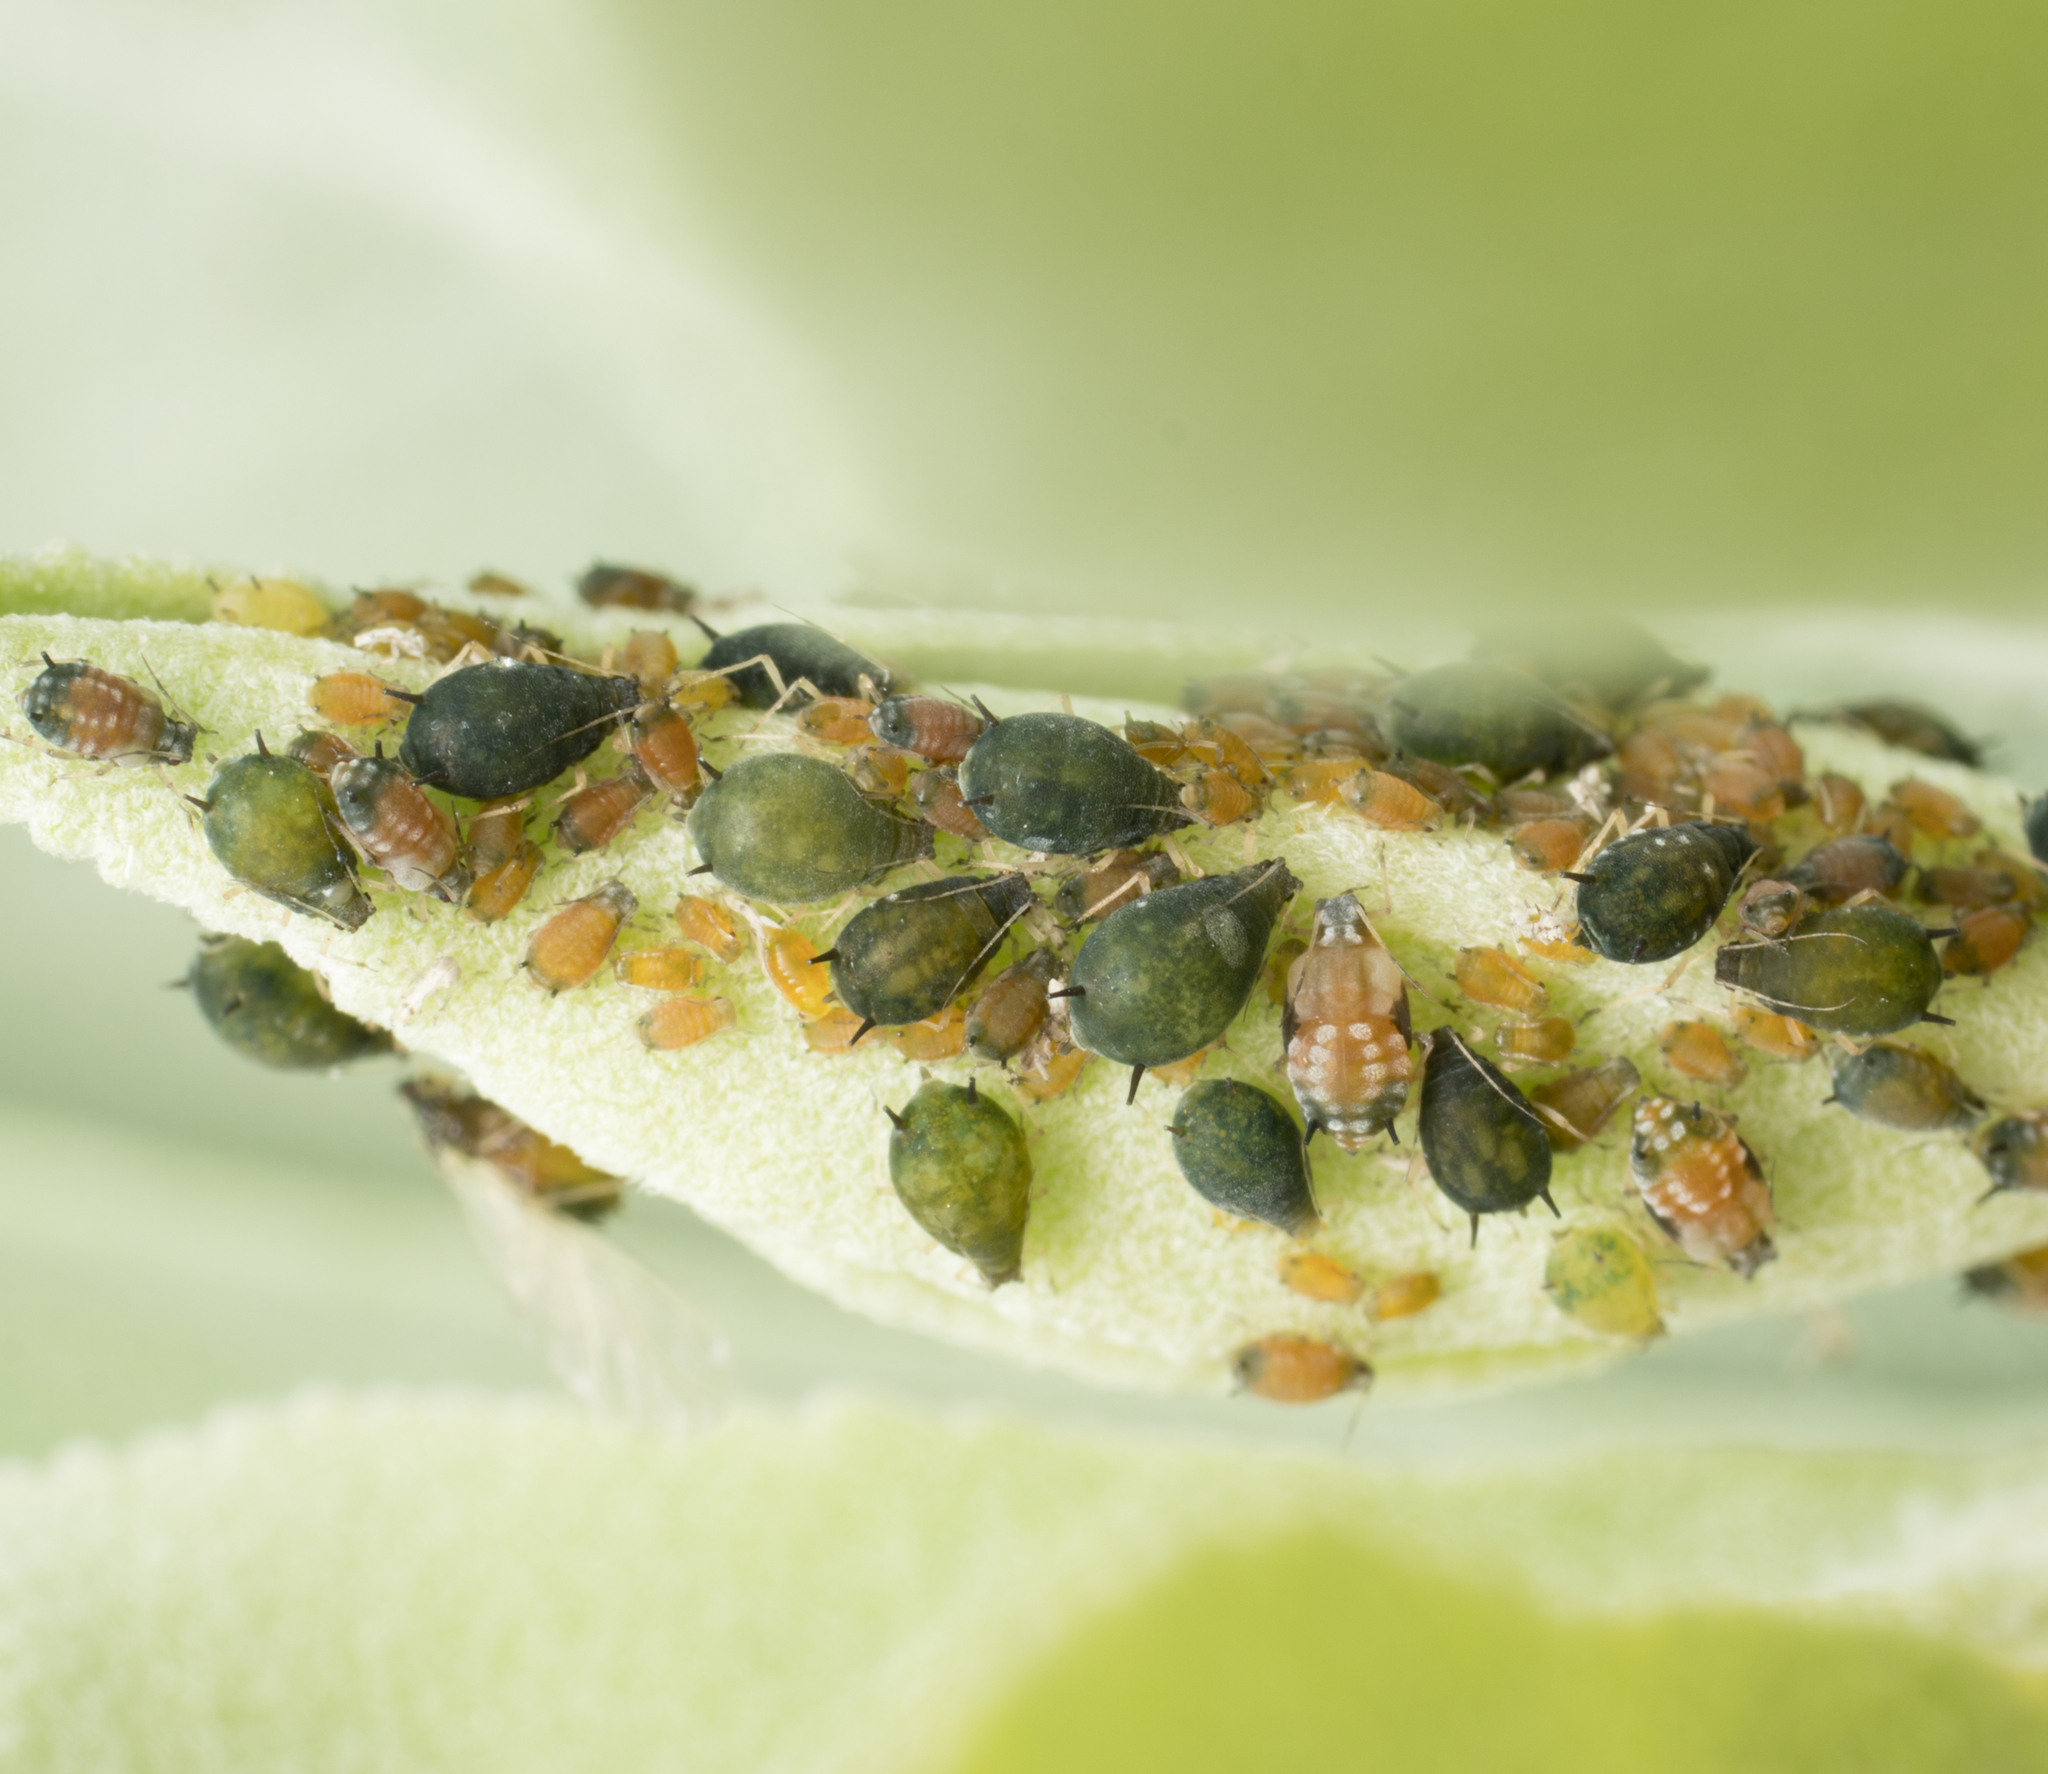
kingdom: Animalia
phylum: Arthropoda
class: Insecta
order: Hemiptera
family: Aphididae
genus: Aphis
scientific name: Aphis gossypii
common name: Melon aphid
